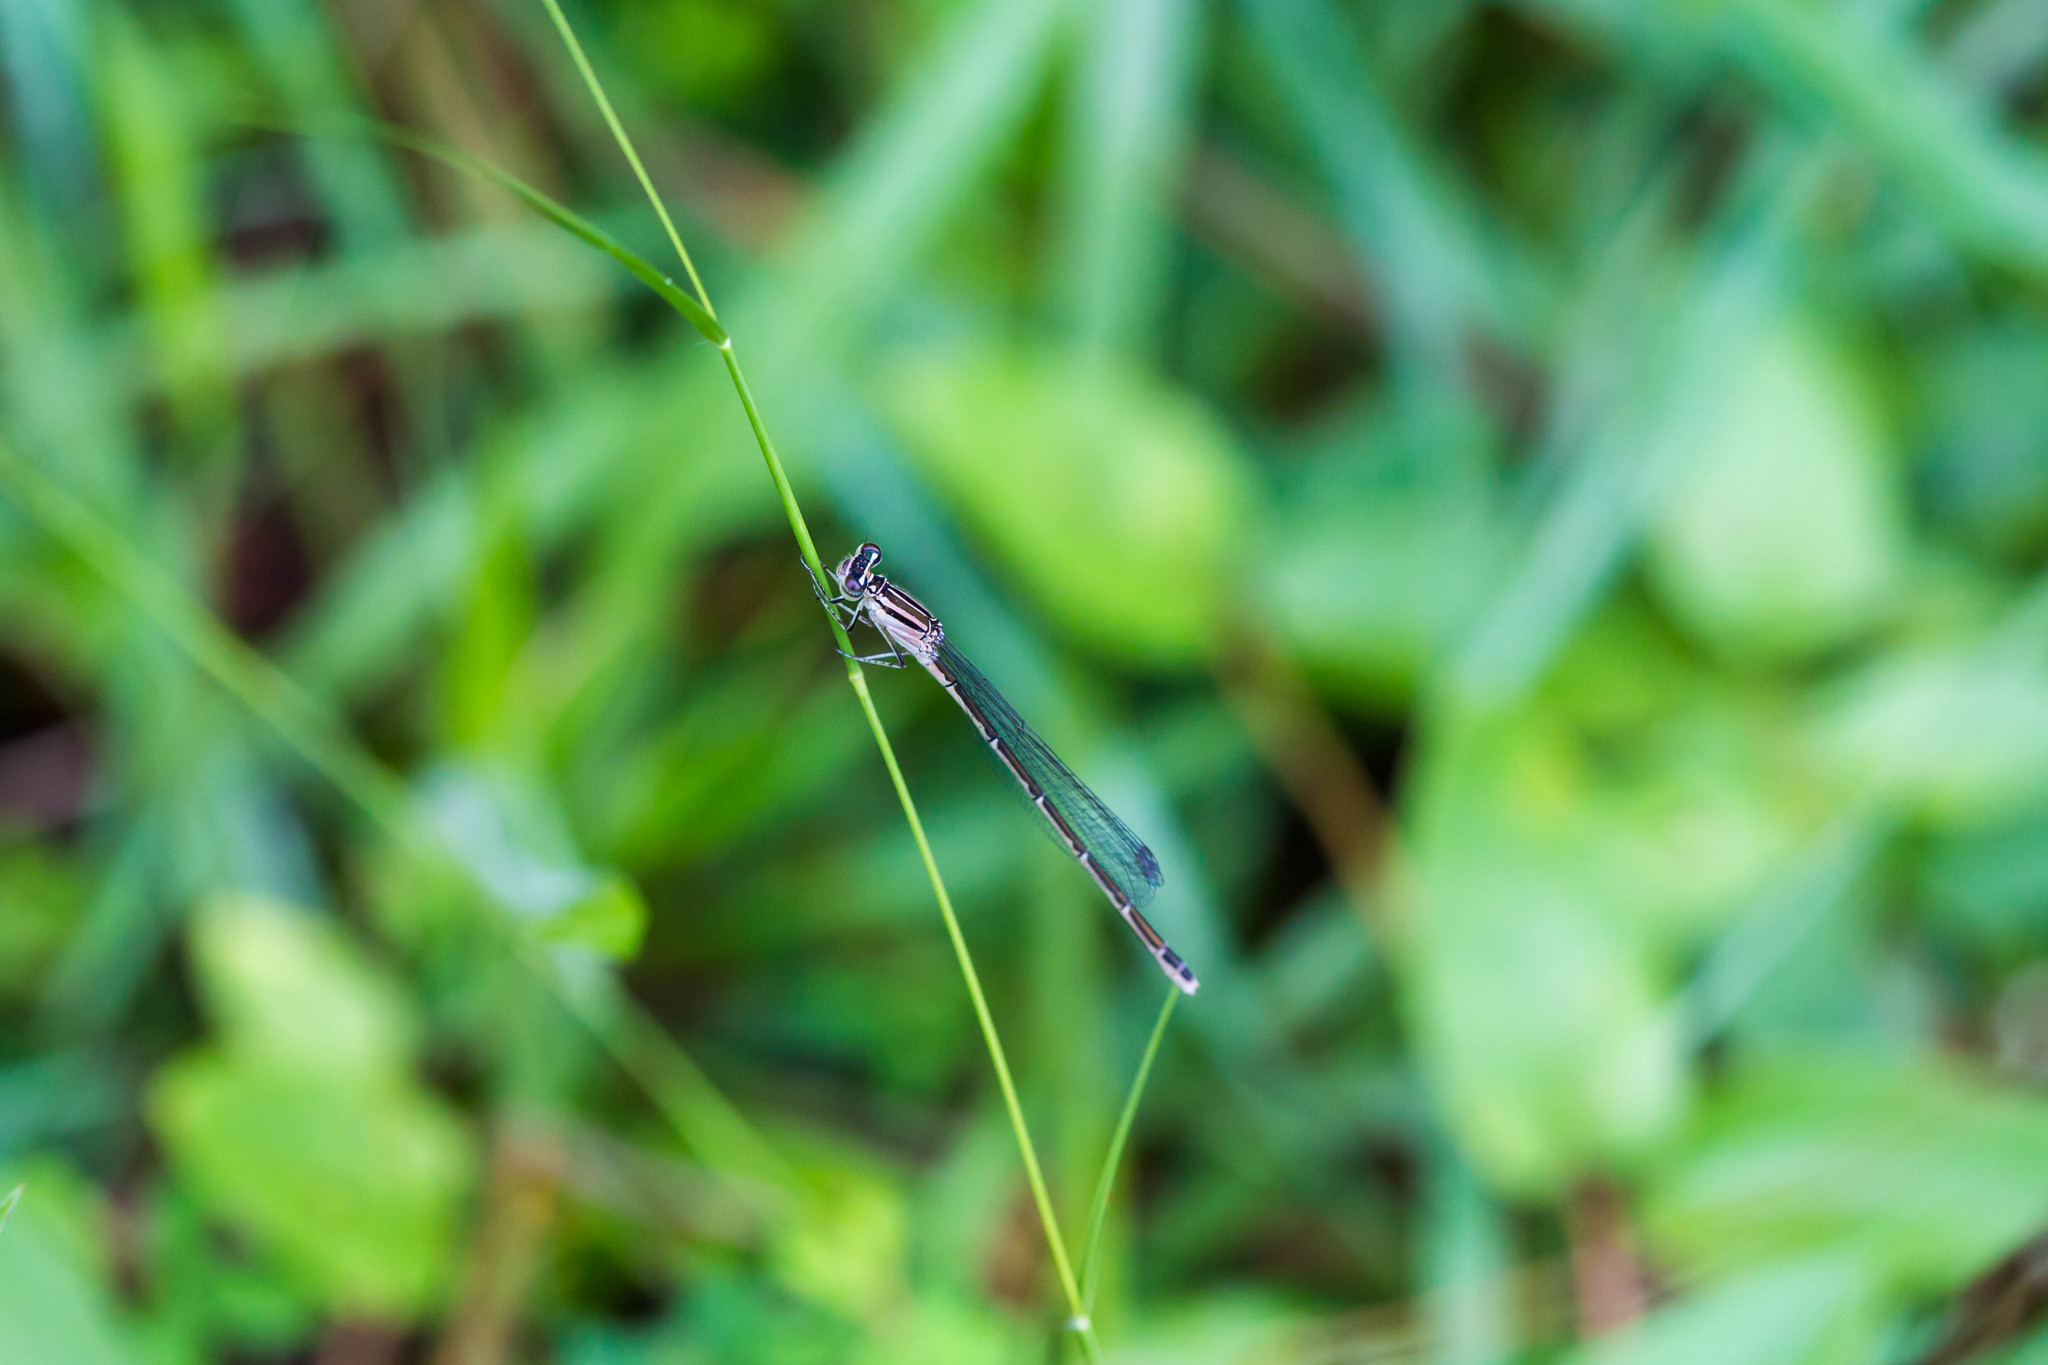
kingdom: Animalia
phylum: Arthropoda
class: Insecta
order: Odonata
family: Coenagrionidae
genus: Enallagma
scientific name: Enallagma durum
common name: Big bluet
